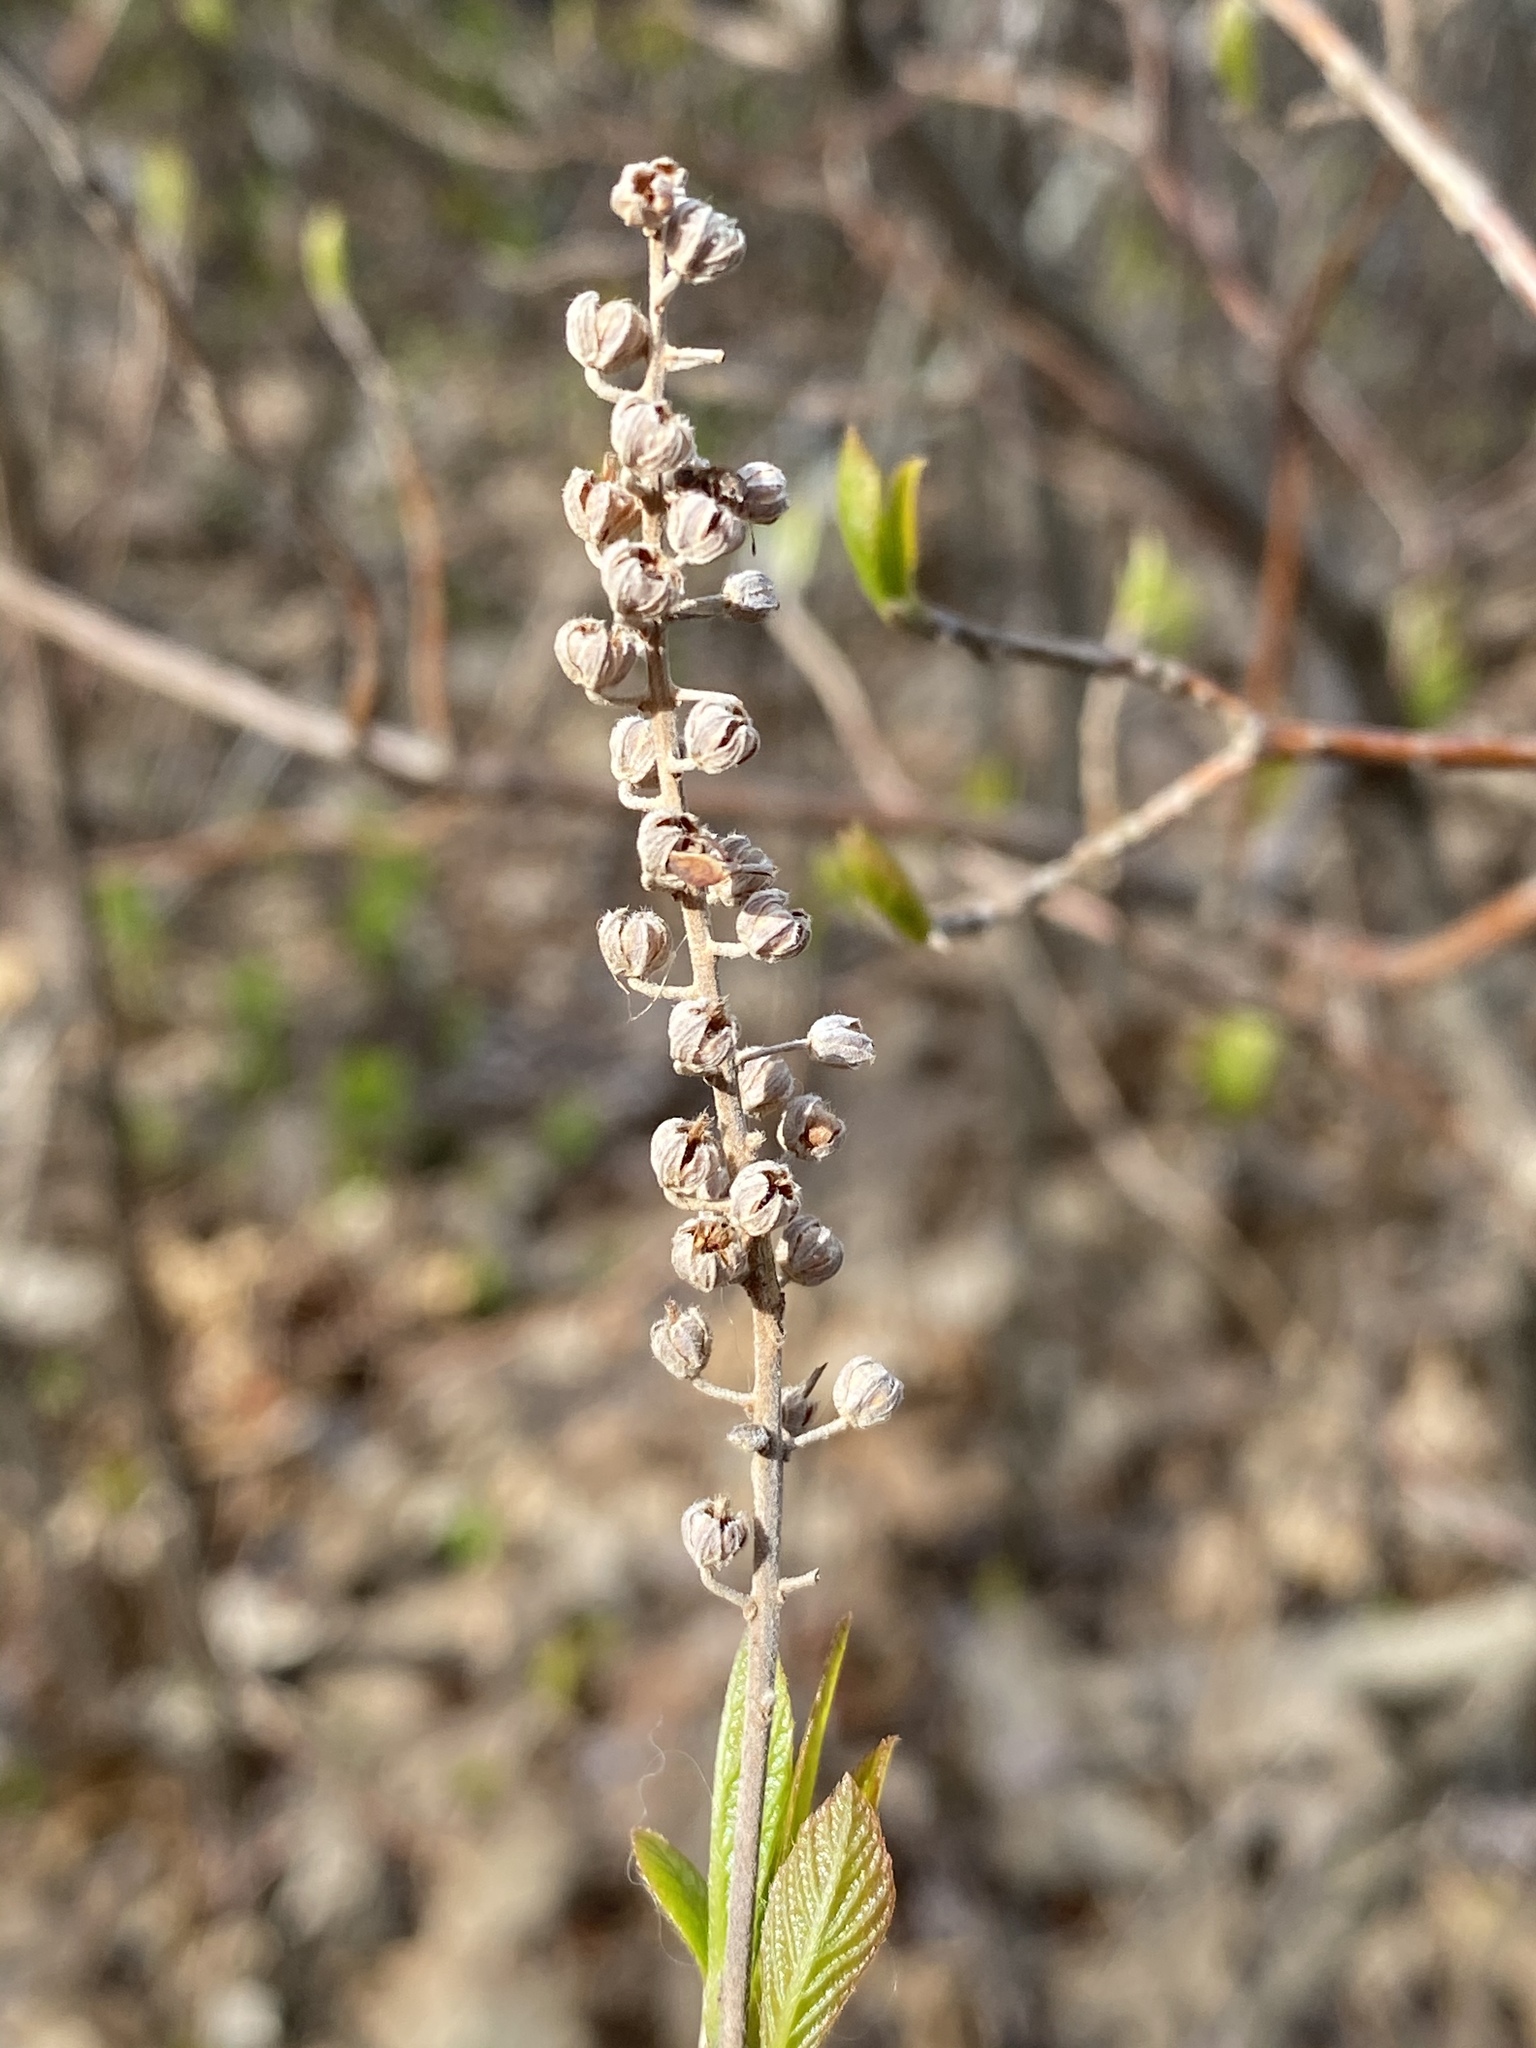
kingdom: Plantae
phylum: Tracheophyta
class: Magnoliopsida
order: Ericales
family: Clethraceae
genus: Clethra
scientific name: Clethra alnifolia
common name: Sweet pepperbush
